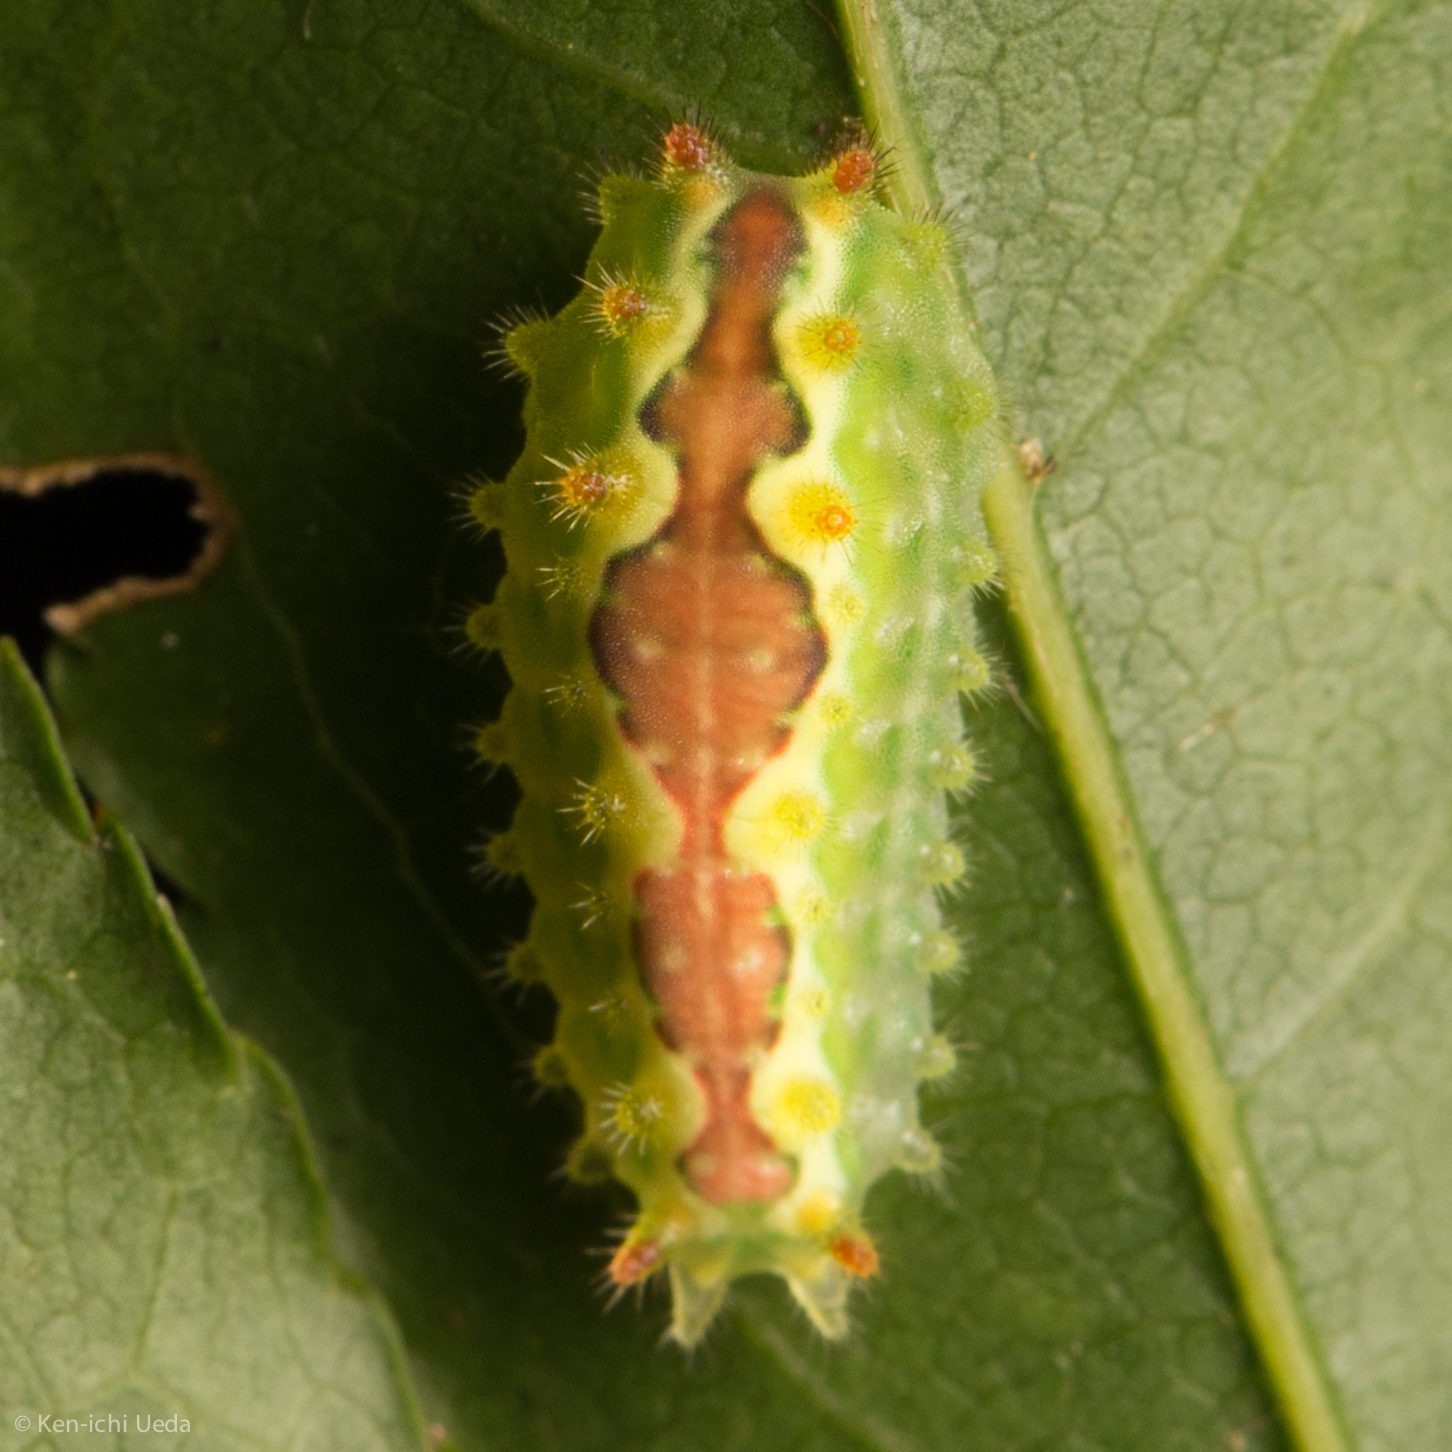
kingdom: Animalia
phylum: Arthropoda
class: Insecta
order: Lepidoptera
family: Limacodidae
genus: Adoneta
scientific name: Adoneta spinuloides
